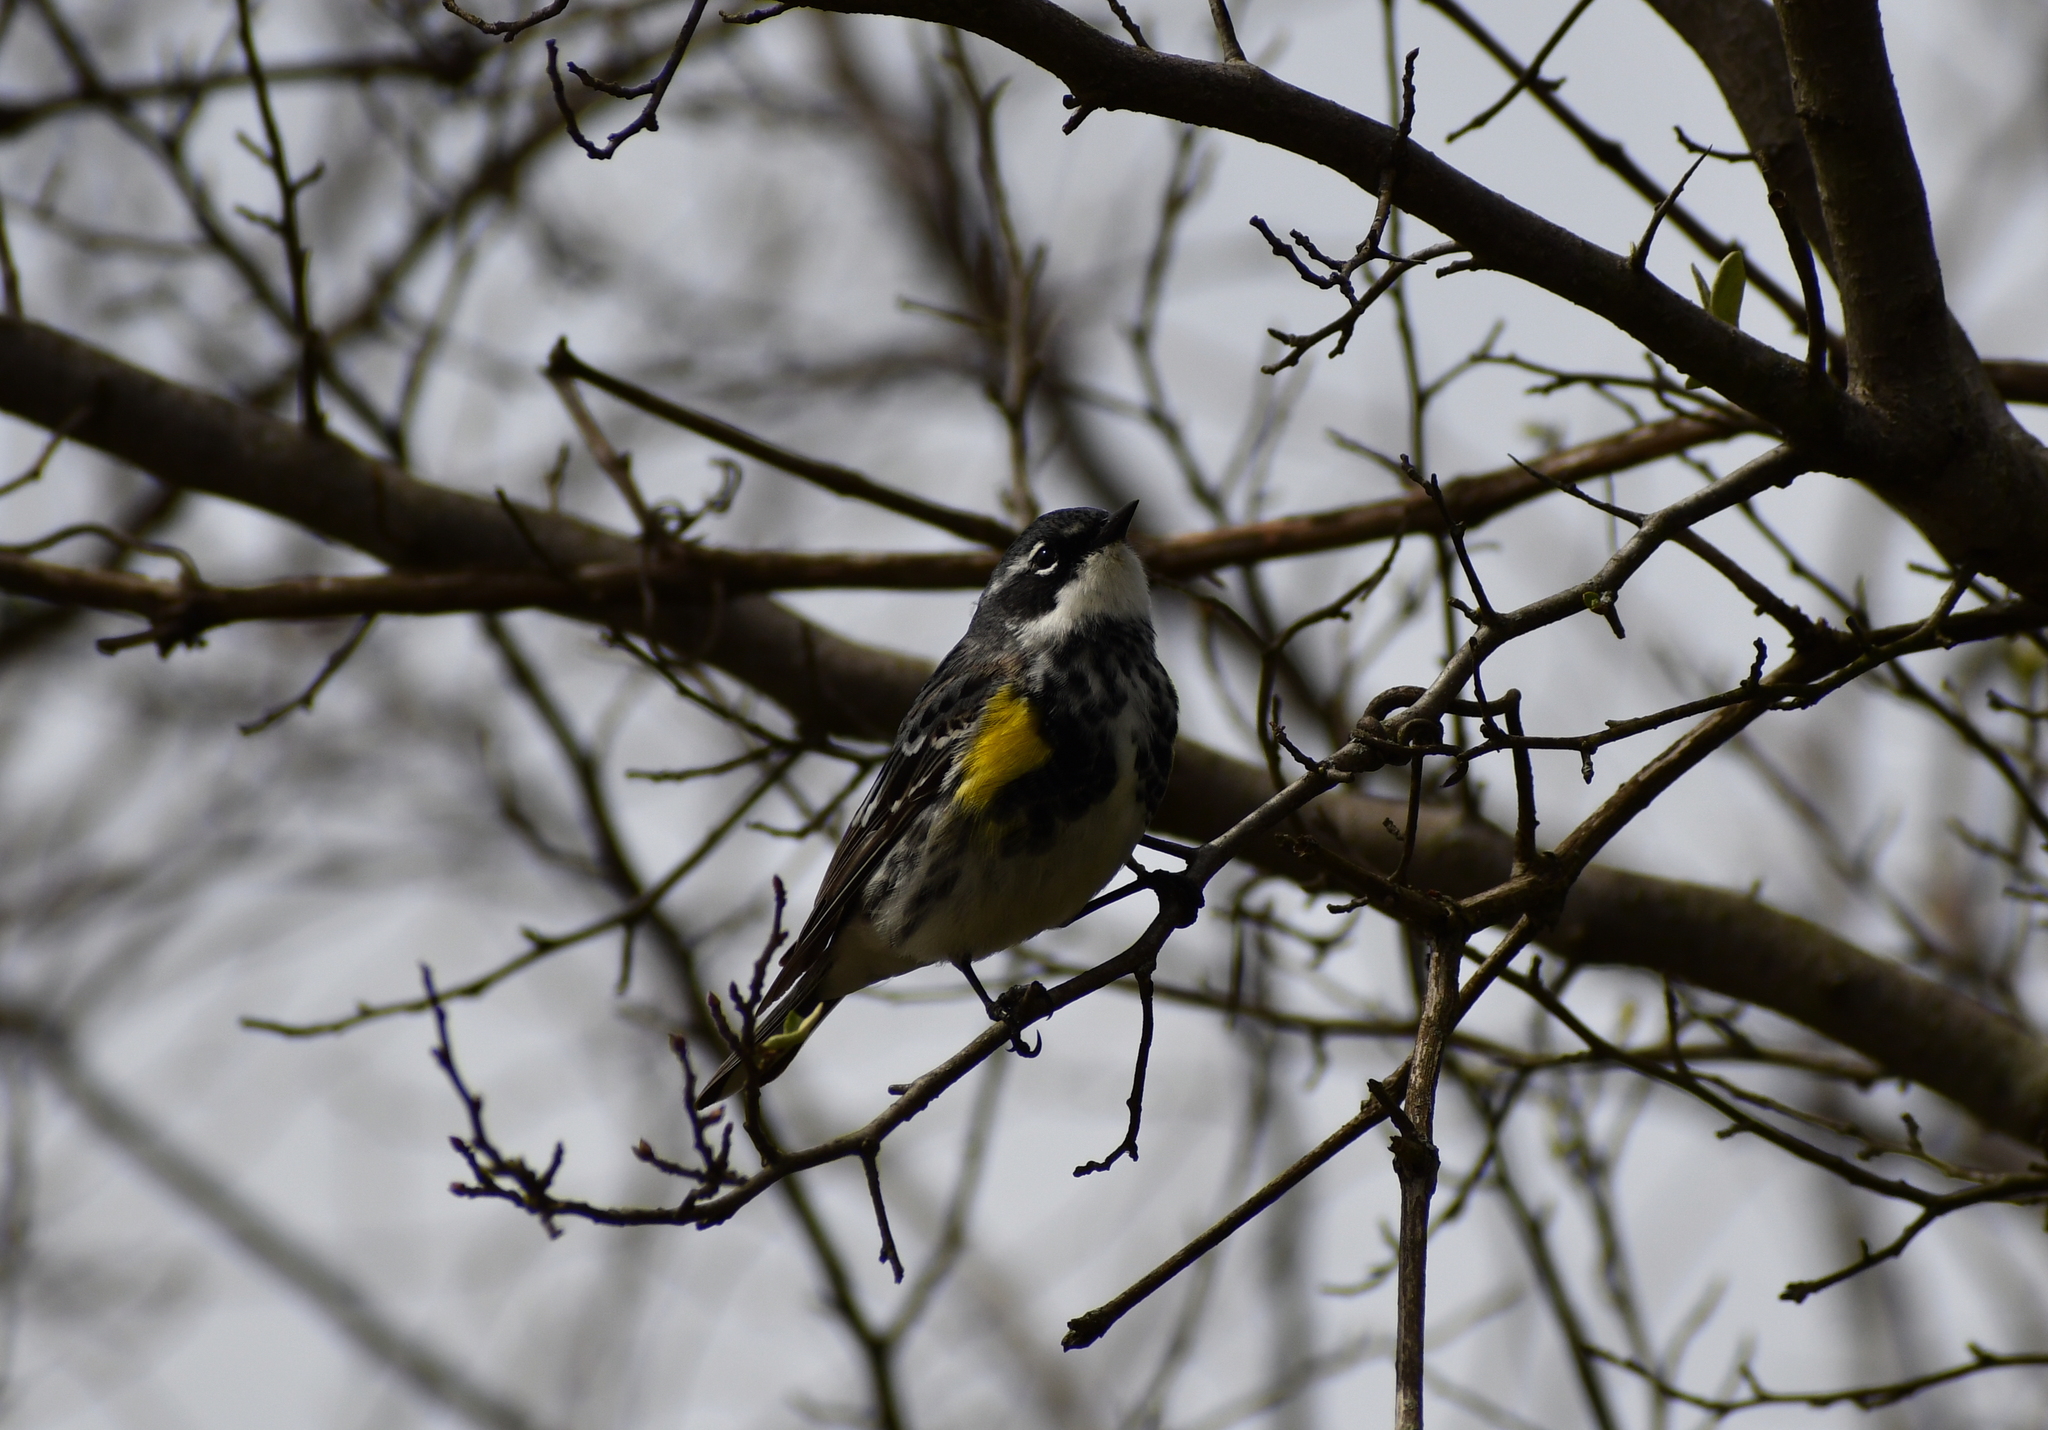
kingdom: Animalia
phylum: Chordata
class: Aves
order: Passeriformes
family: Parulidae
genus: Setophaga
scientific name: Setophaga coronata
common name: Myrtle warbler
